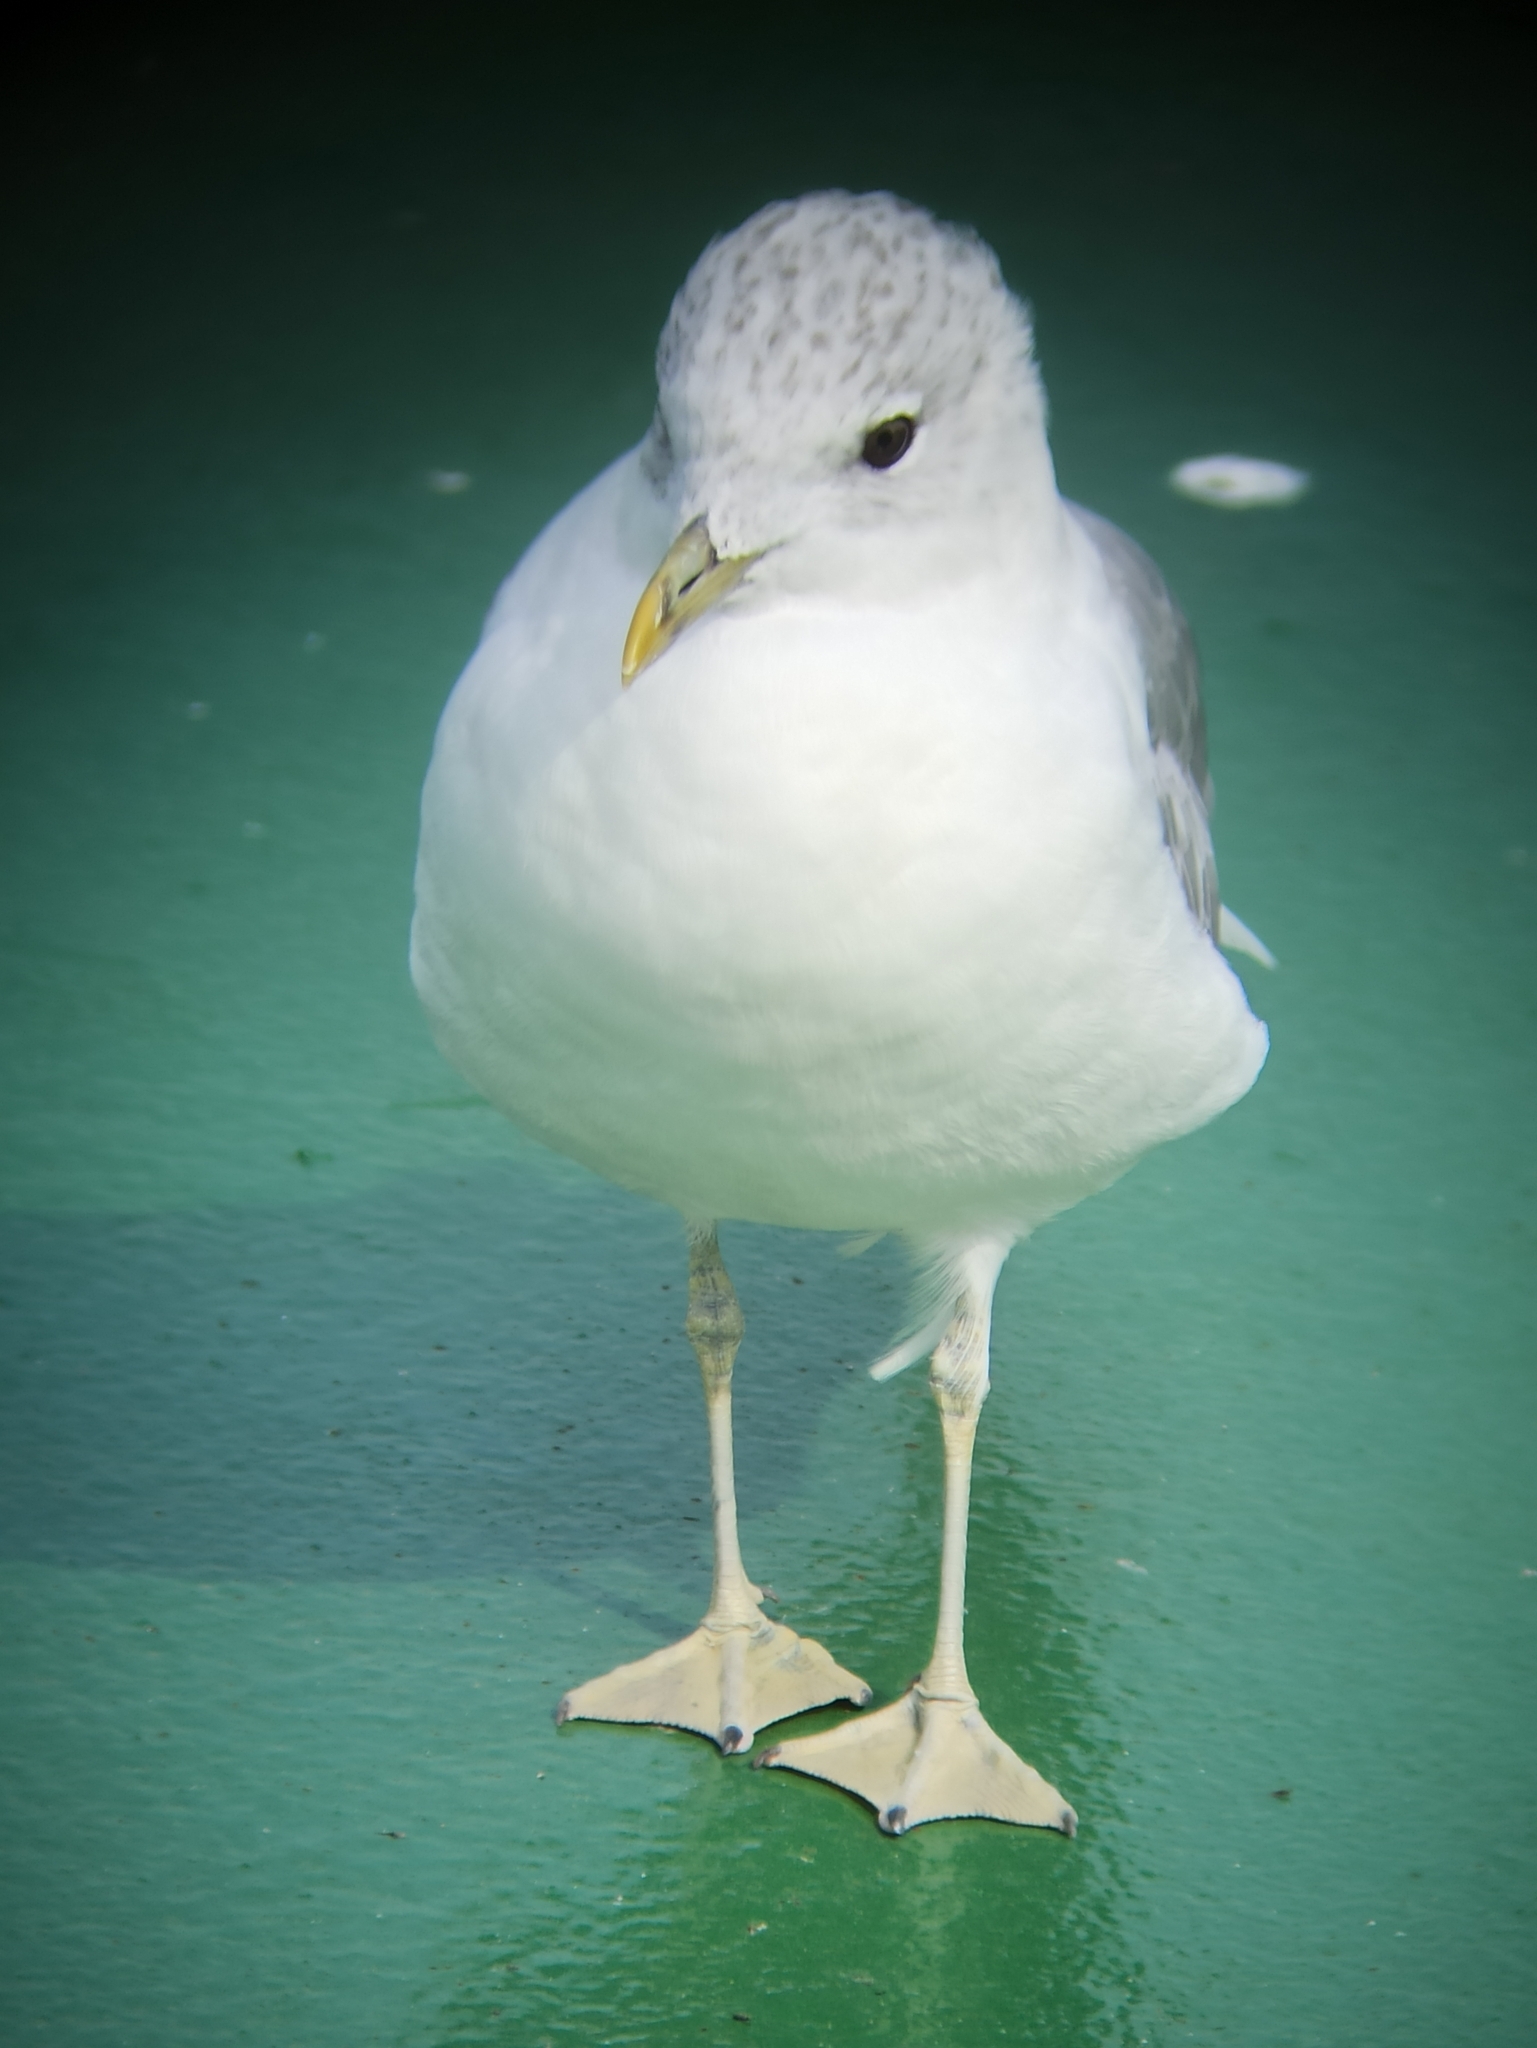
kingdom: Animalia
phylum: Chordata
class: Aves
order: Charadriiformes
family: Laridae
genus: Larus
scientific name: Larus canus
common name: Mew gull
